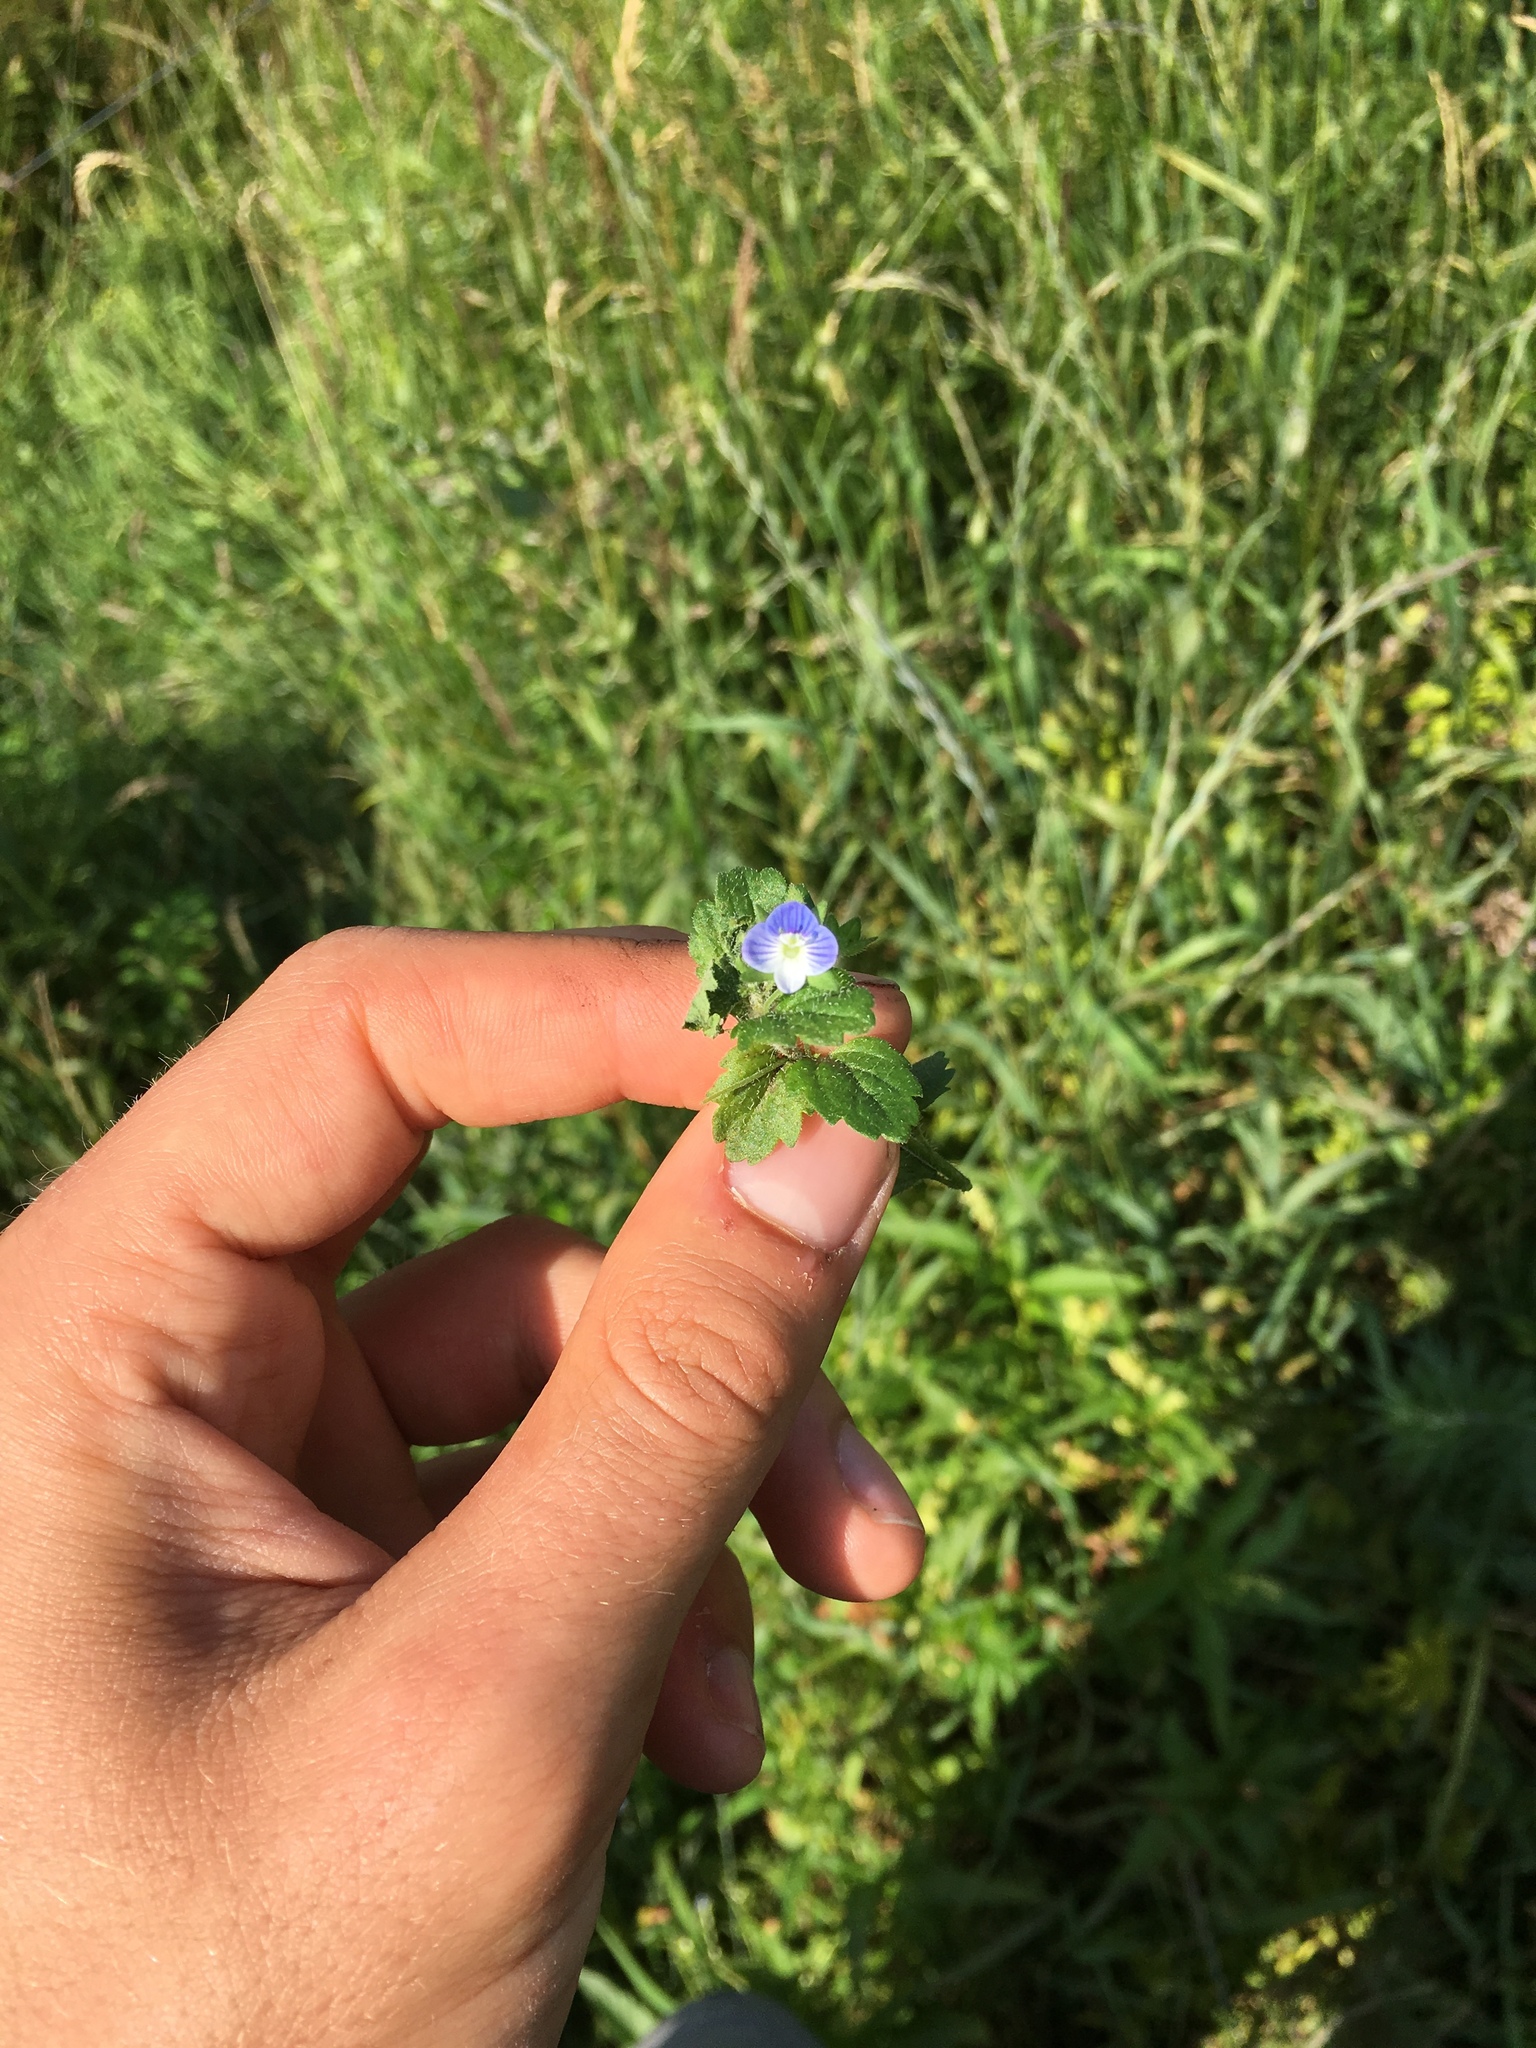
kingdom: Plantae
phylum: Tracheophyta
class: Magnoliopsida
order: Lamiales
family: Plantaginaceae
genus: Veronica
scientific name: Veronica persica
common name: Common field-speedwell
